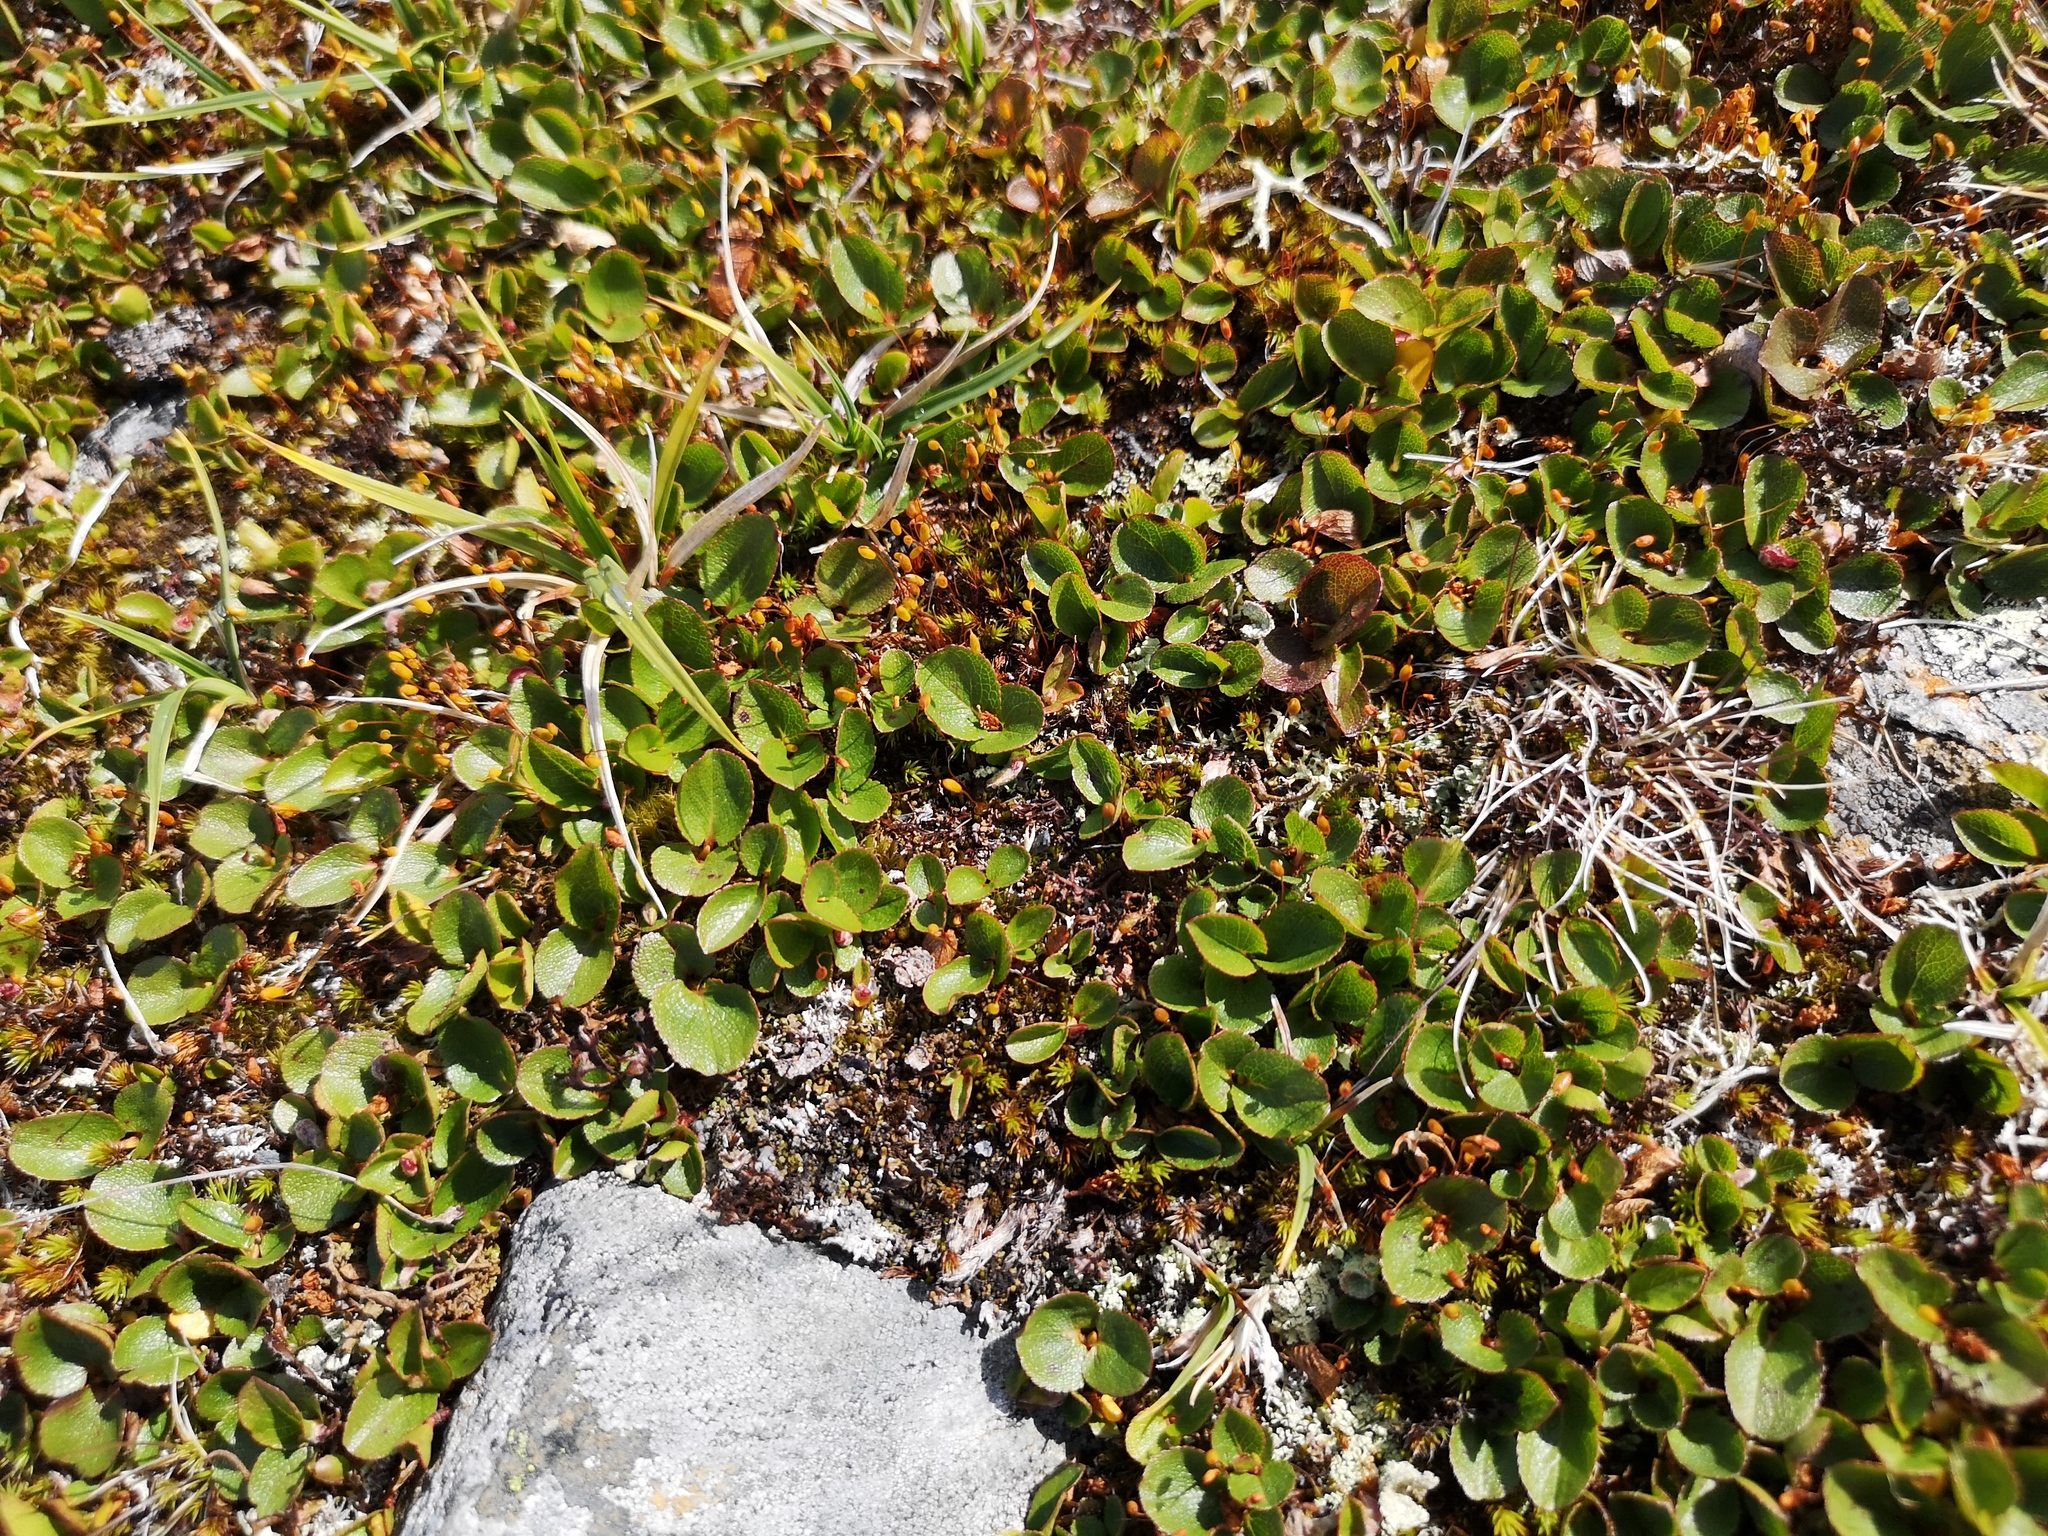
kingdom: Plantae
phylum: Tracheophyta
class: Magnoliopsida
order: Malpighiales
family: Salicaceae
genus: Salix
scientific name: Salix herbacea
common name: Dwarf willow
